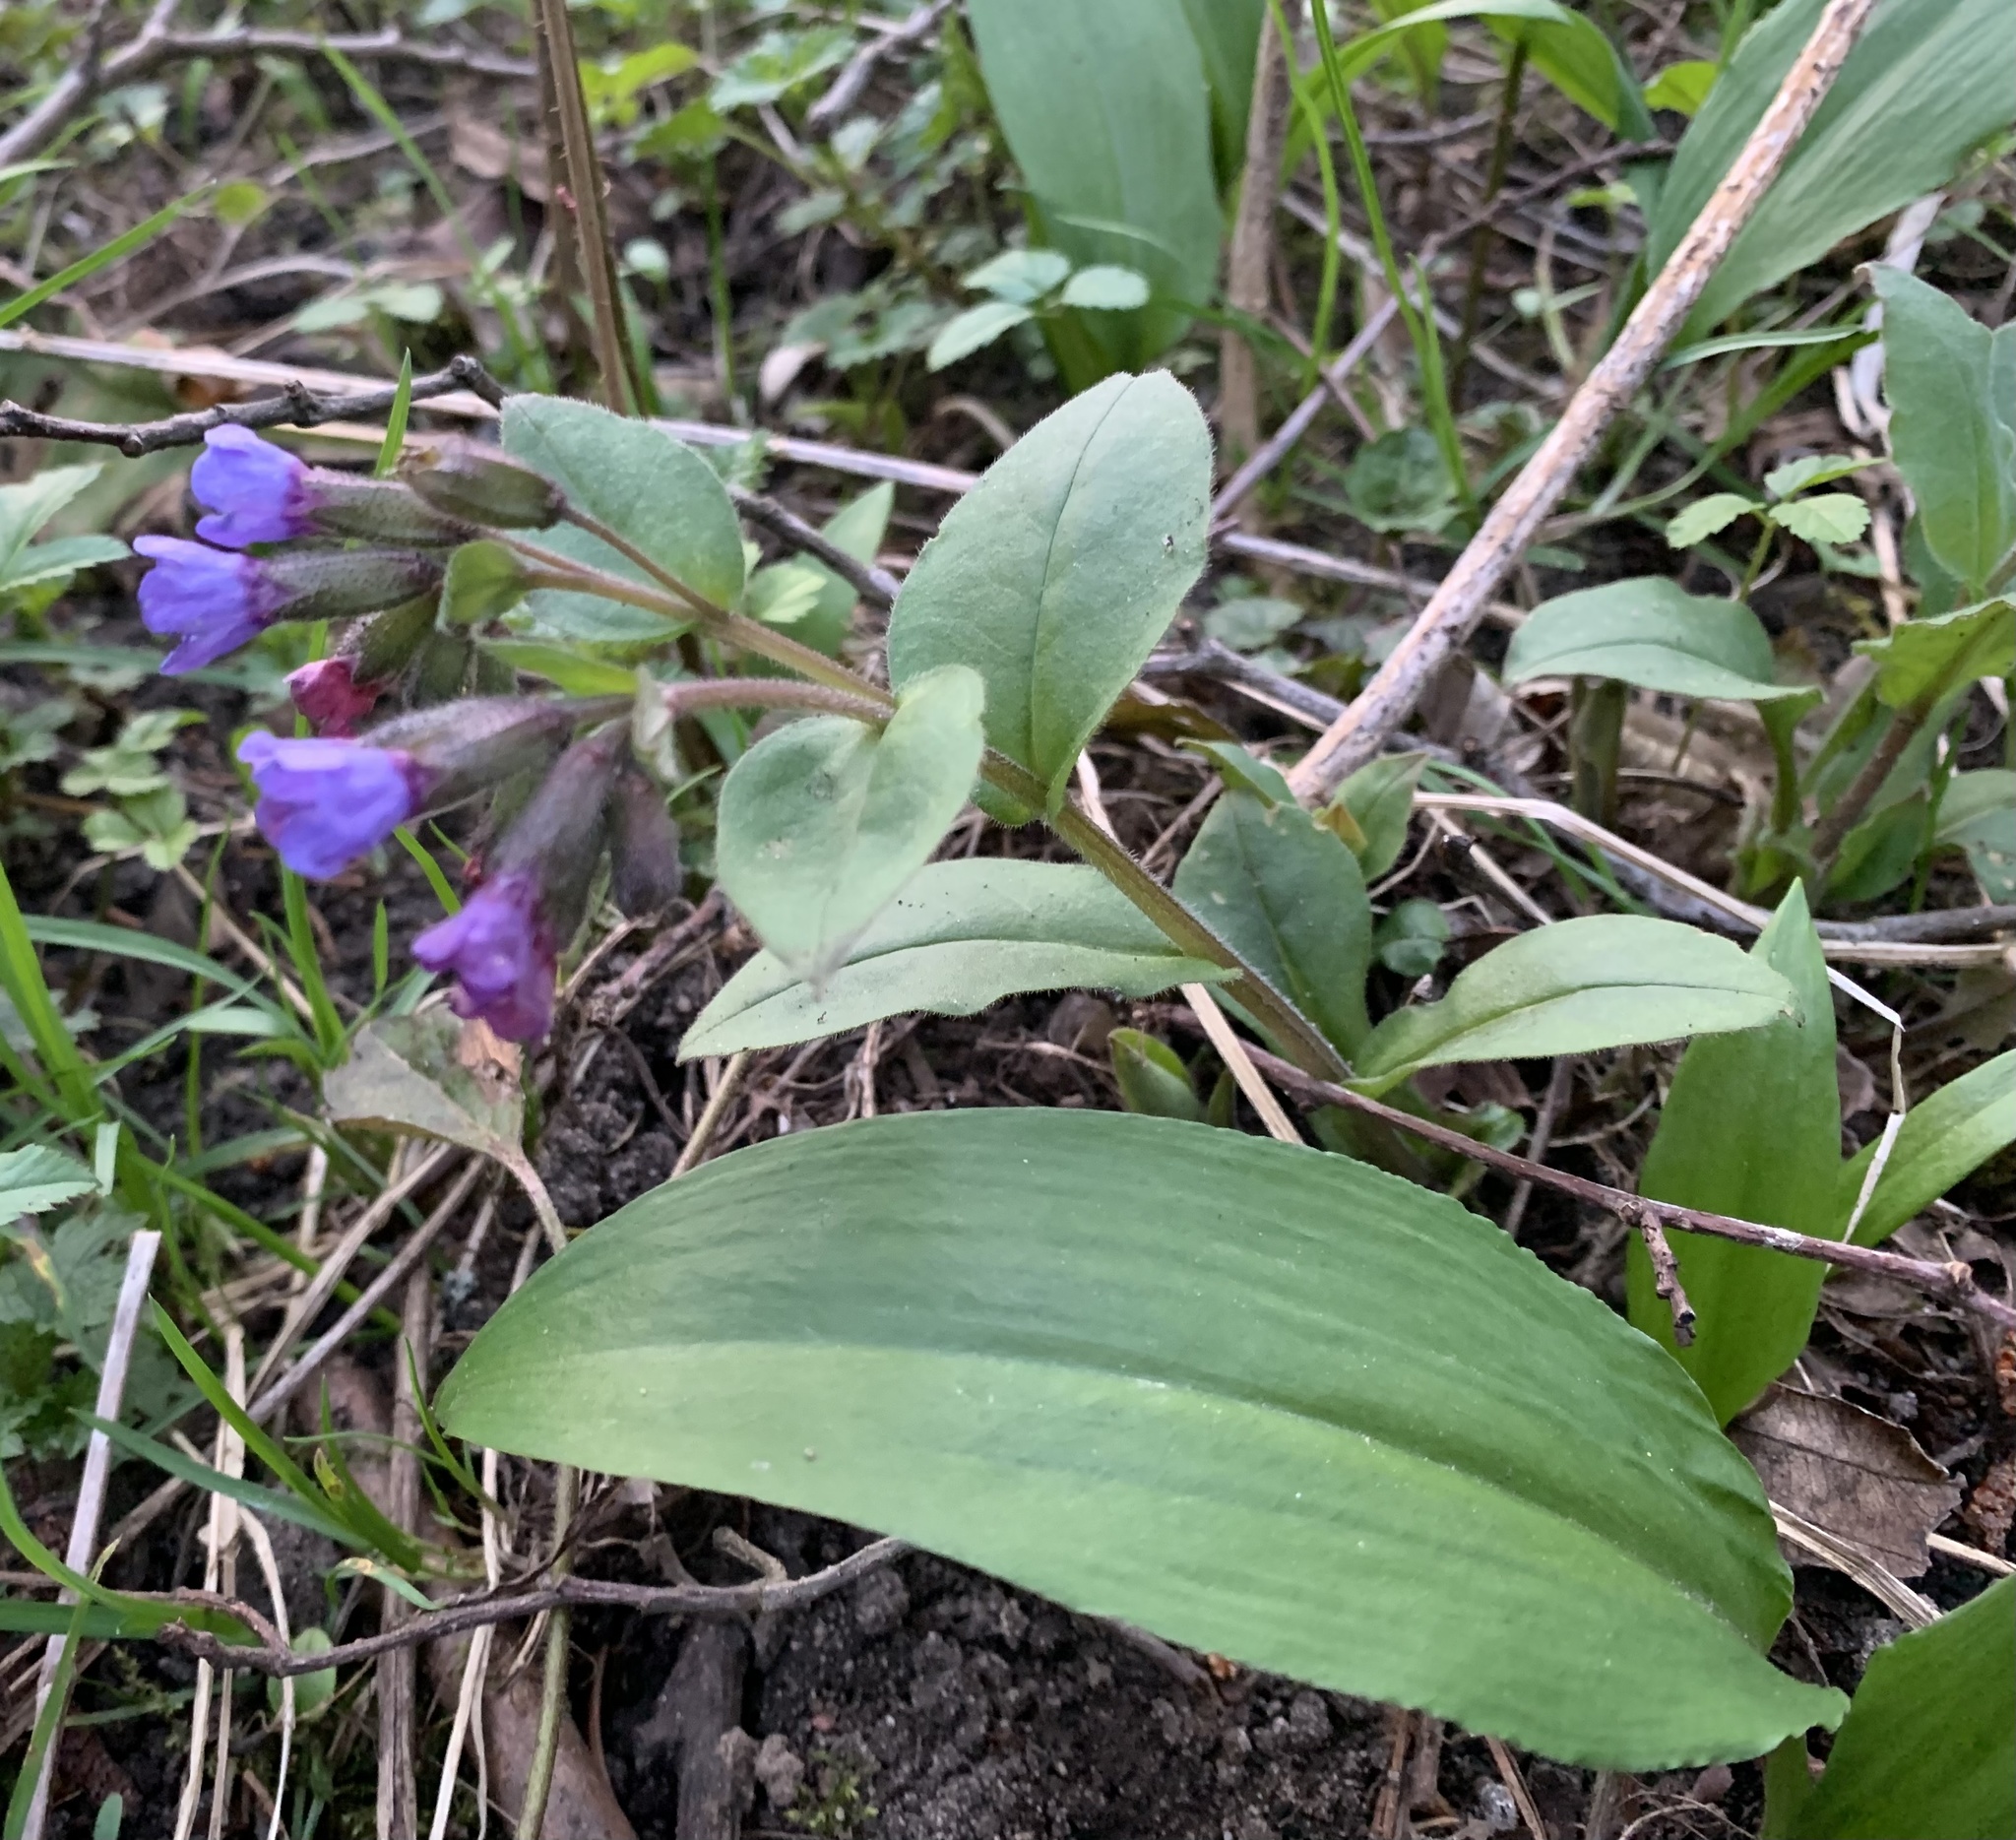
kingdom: Plantae
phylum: Tracheophyta
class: Magnoliopsida
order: Boraginales
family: Boraginaceae
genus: Pulmonaria
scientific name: Pulmonaria obscura
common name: Suffolk lungwort
